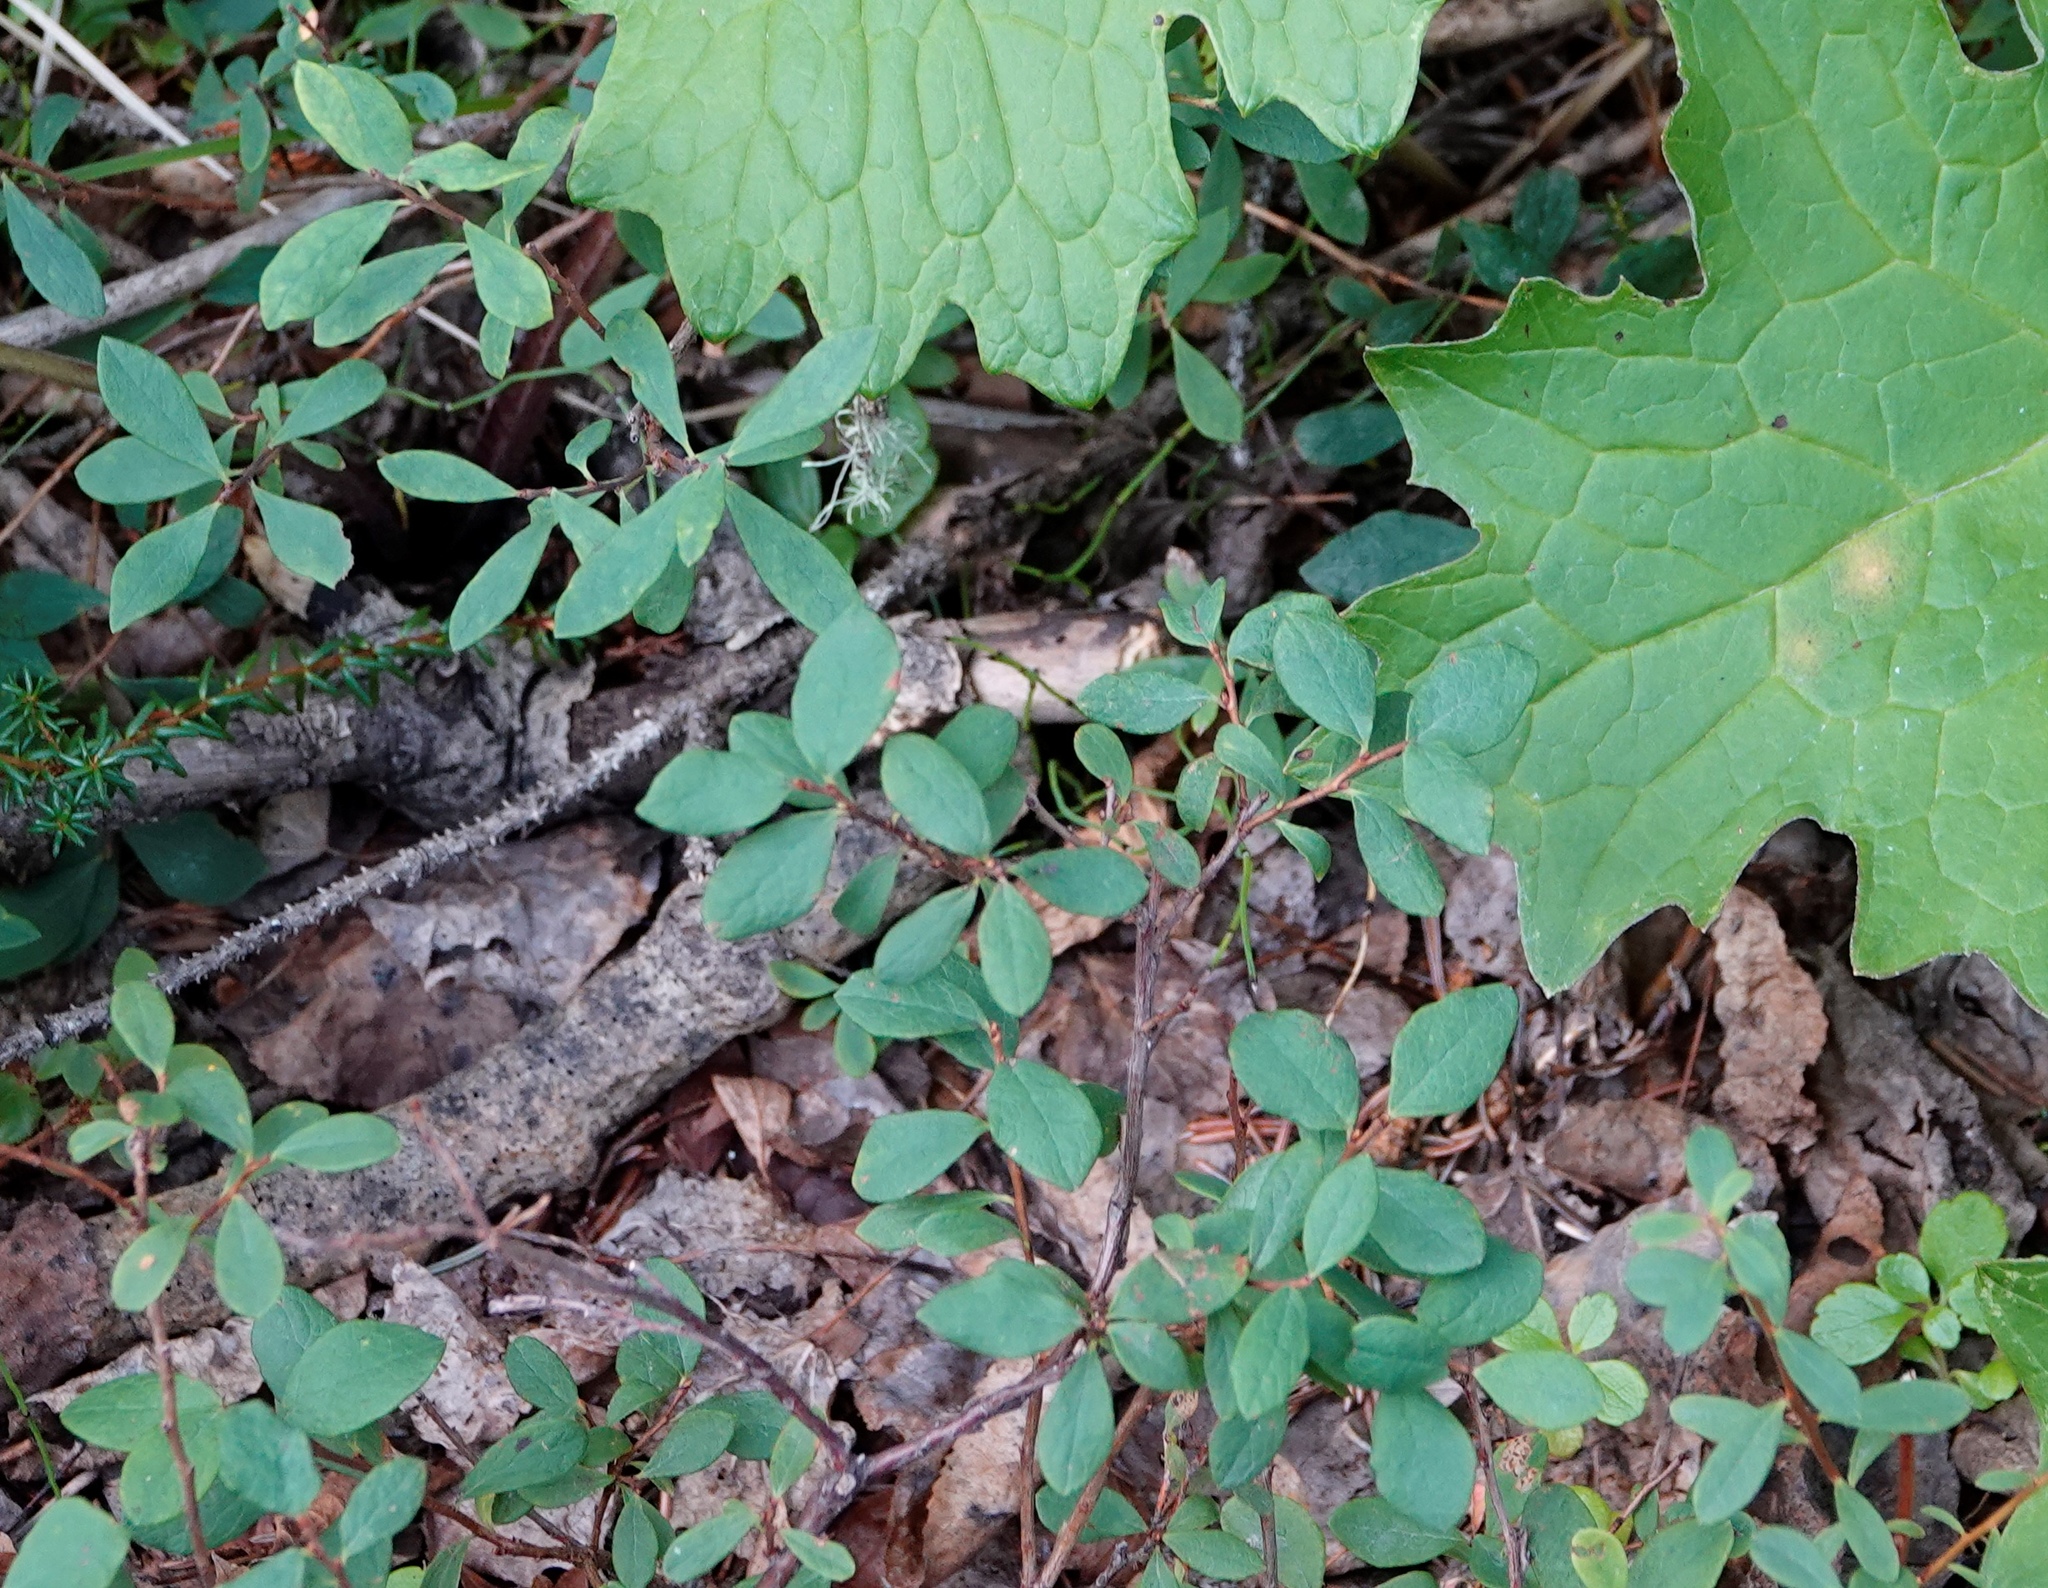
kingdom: Plantae
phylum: Tracheophyta
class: Magnoliopsida
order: Ericales
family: Ericaceae
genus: Vaccinium
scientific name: Vaccinium uliginosum
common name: Bog bilberry
